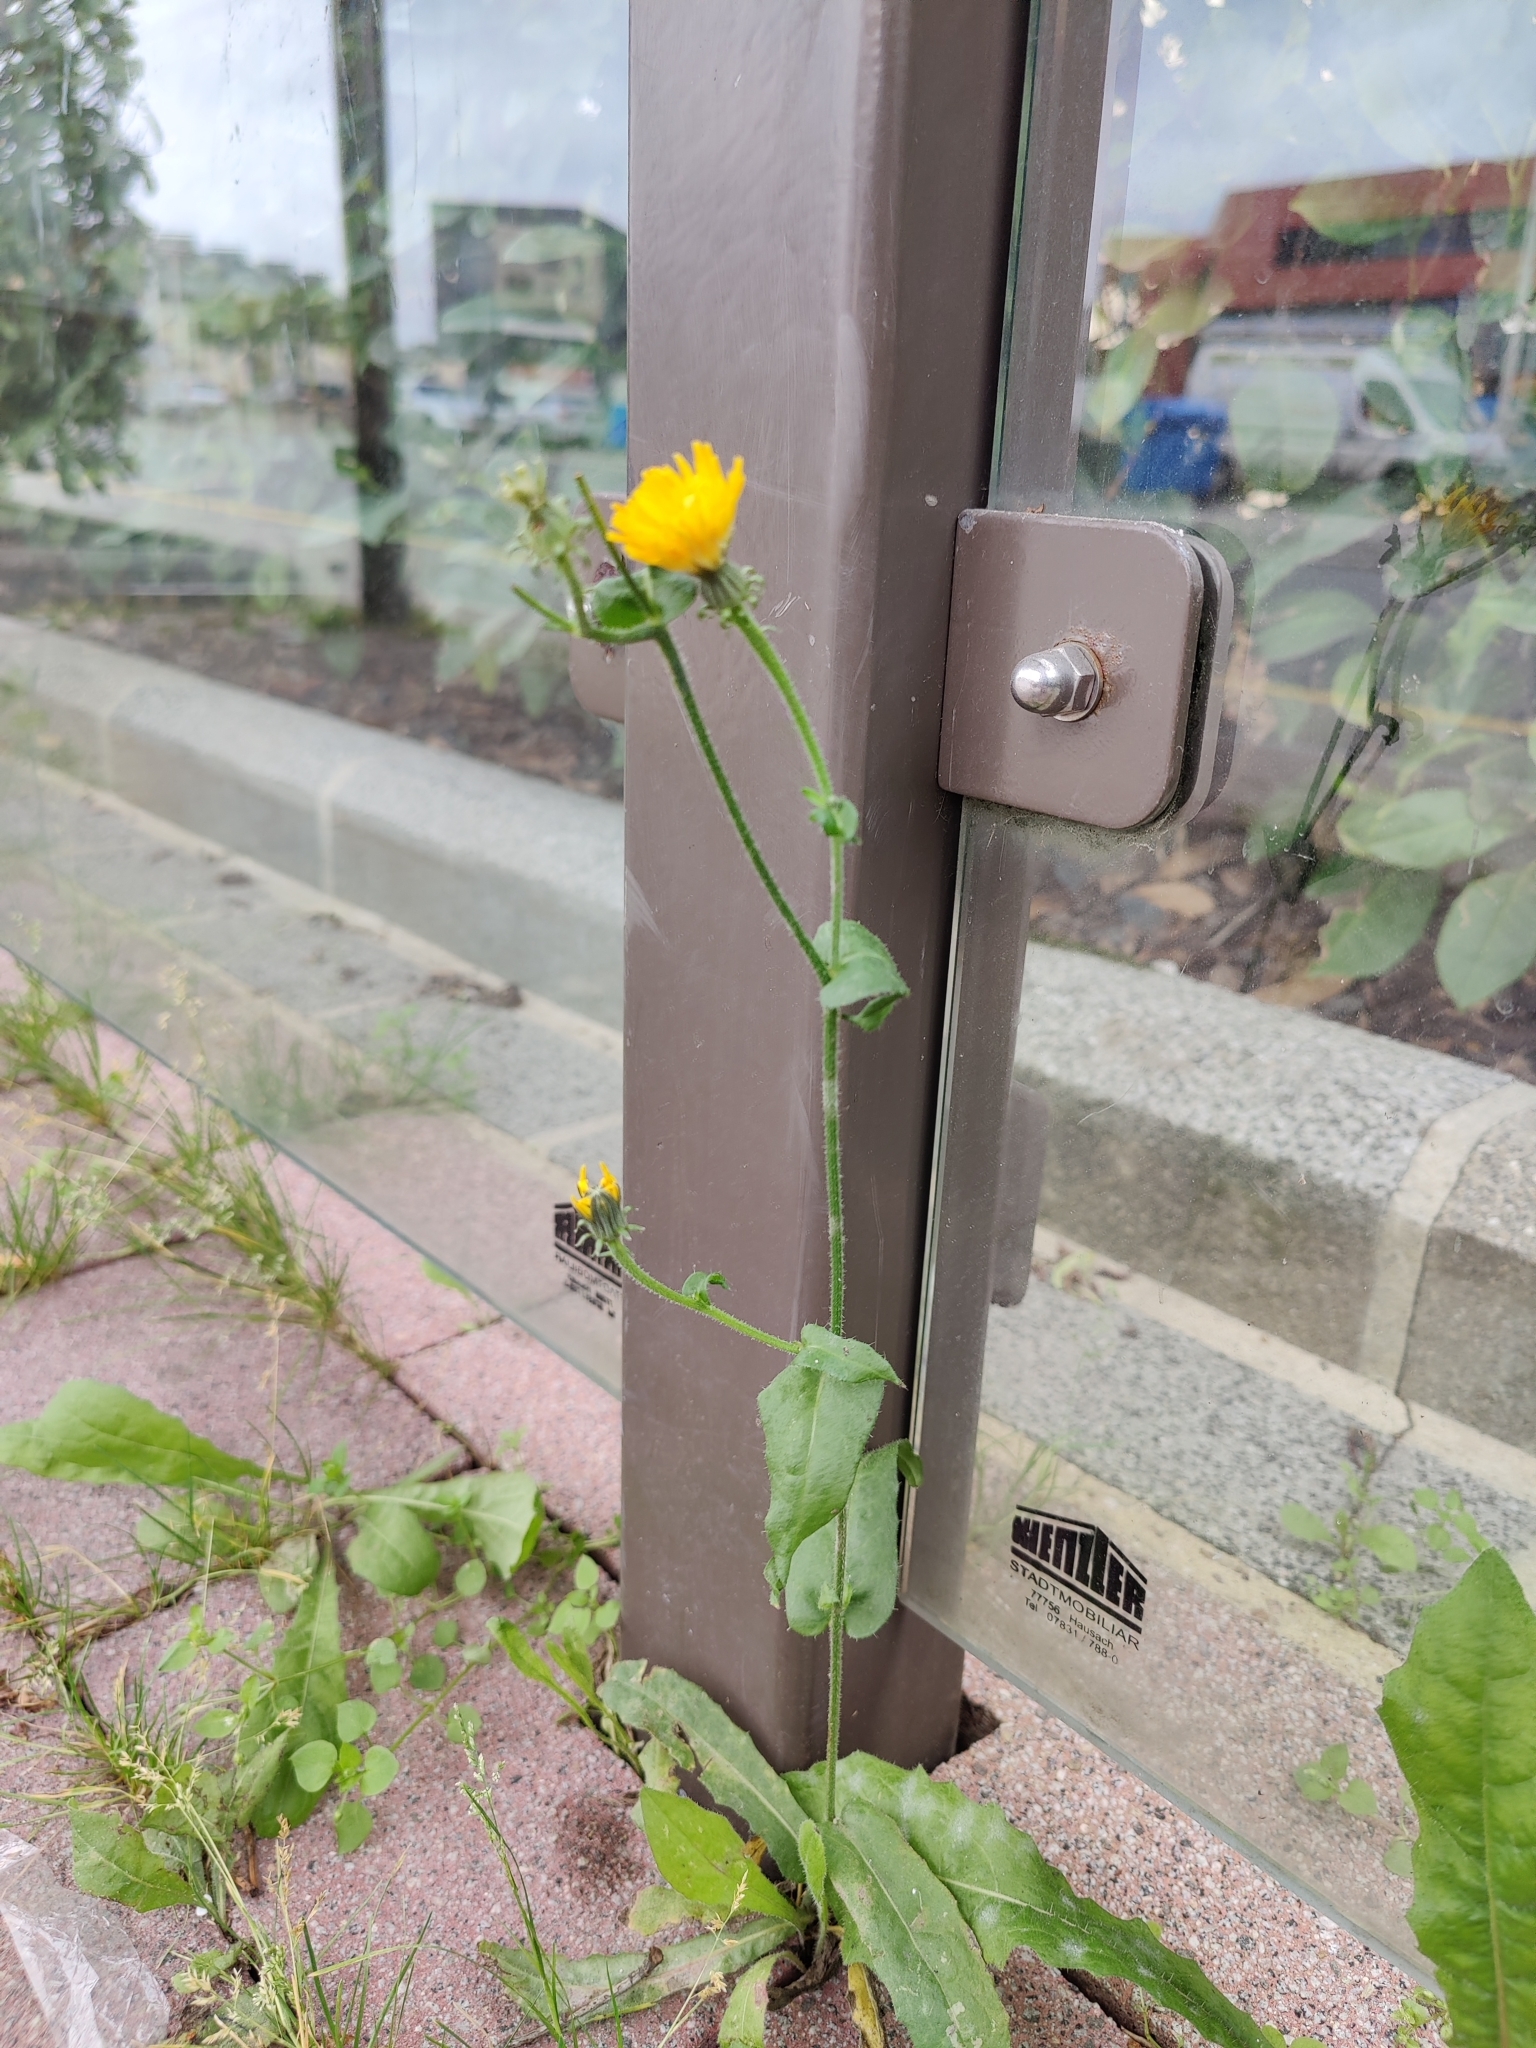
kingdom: Plantae
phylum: Tracheophyta
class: Magnoliopsida
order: Asterales
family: Asteraceae
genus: Picris
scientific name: Picris hieracioides
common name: Hawkweed oxtongue
